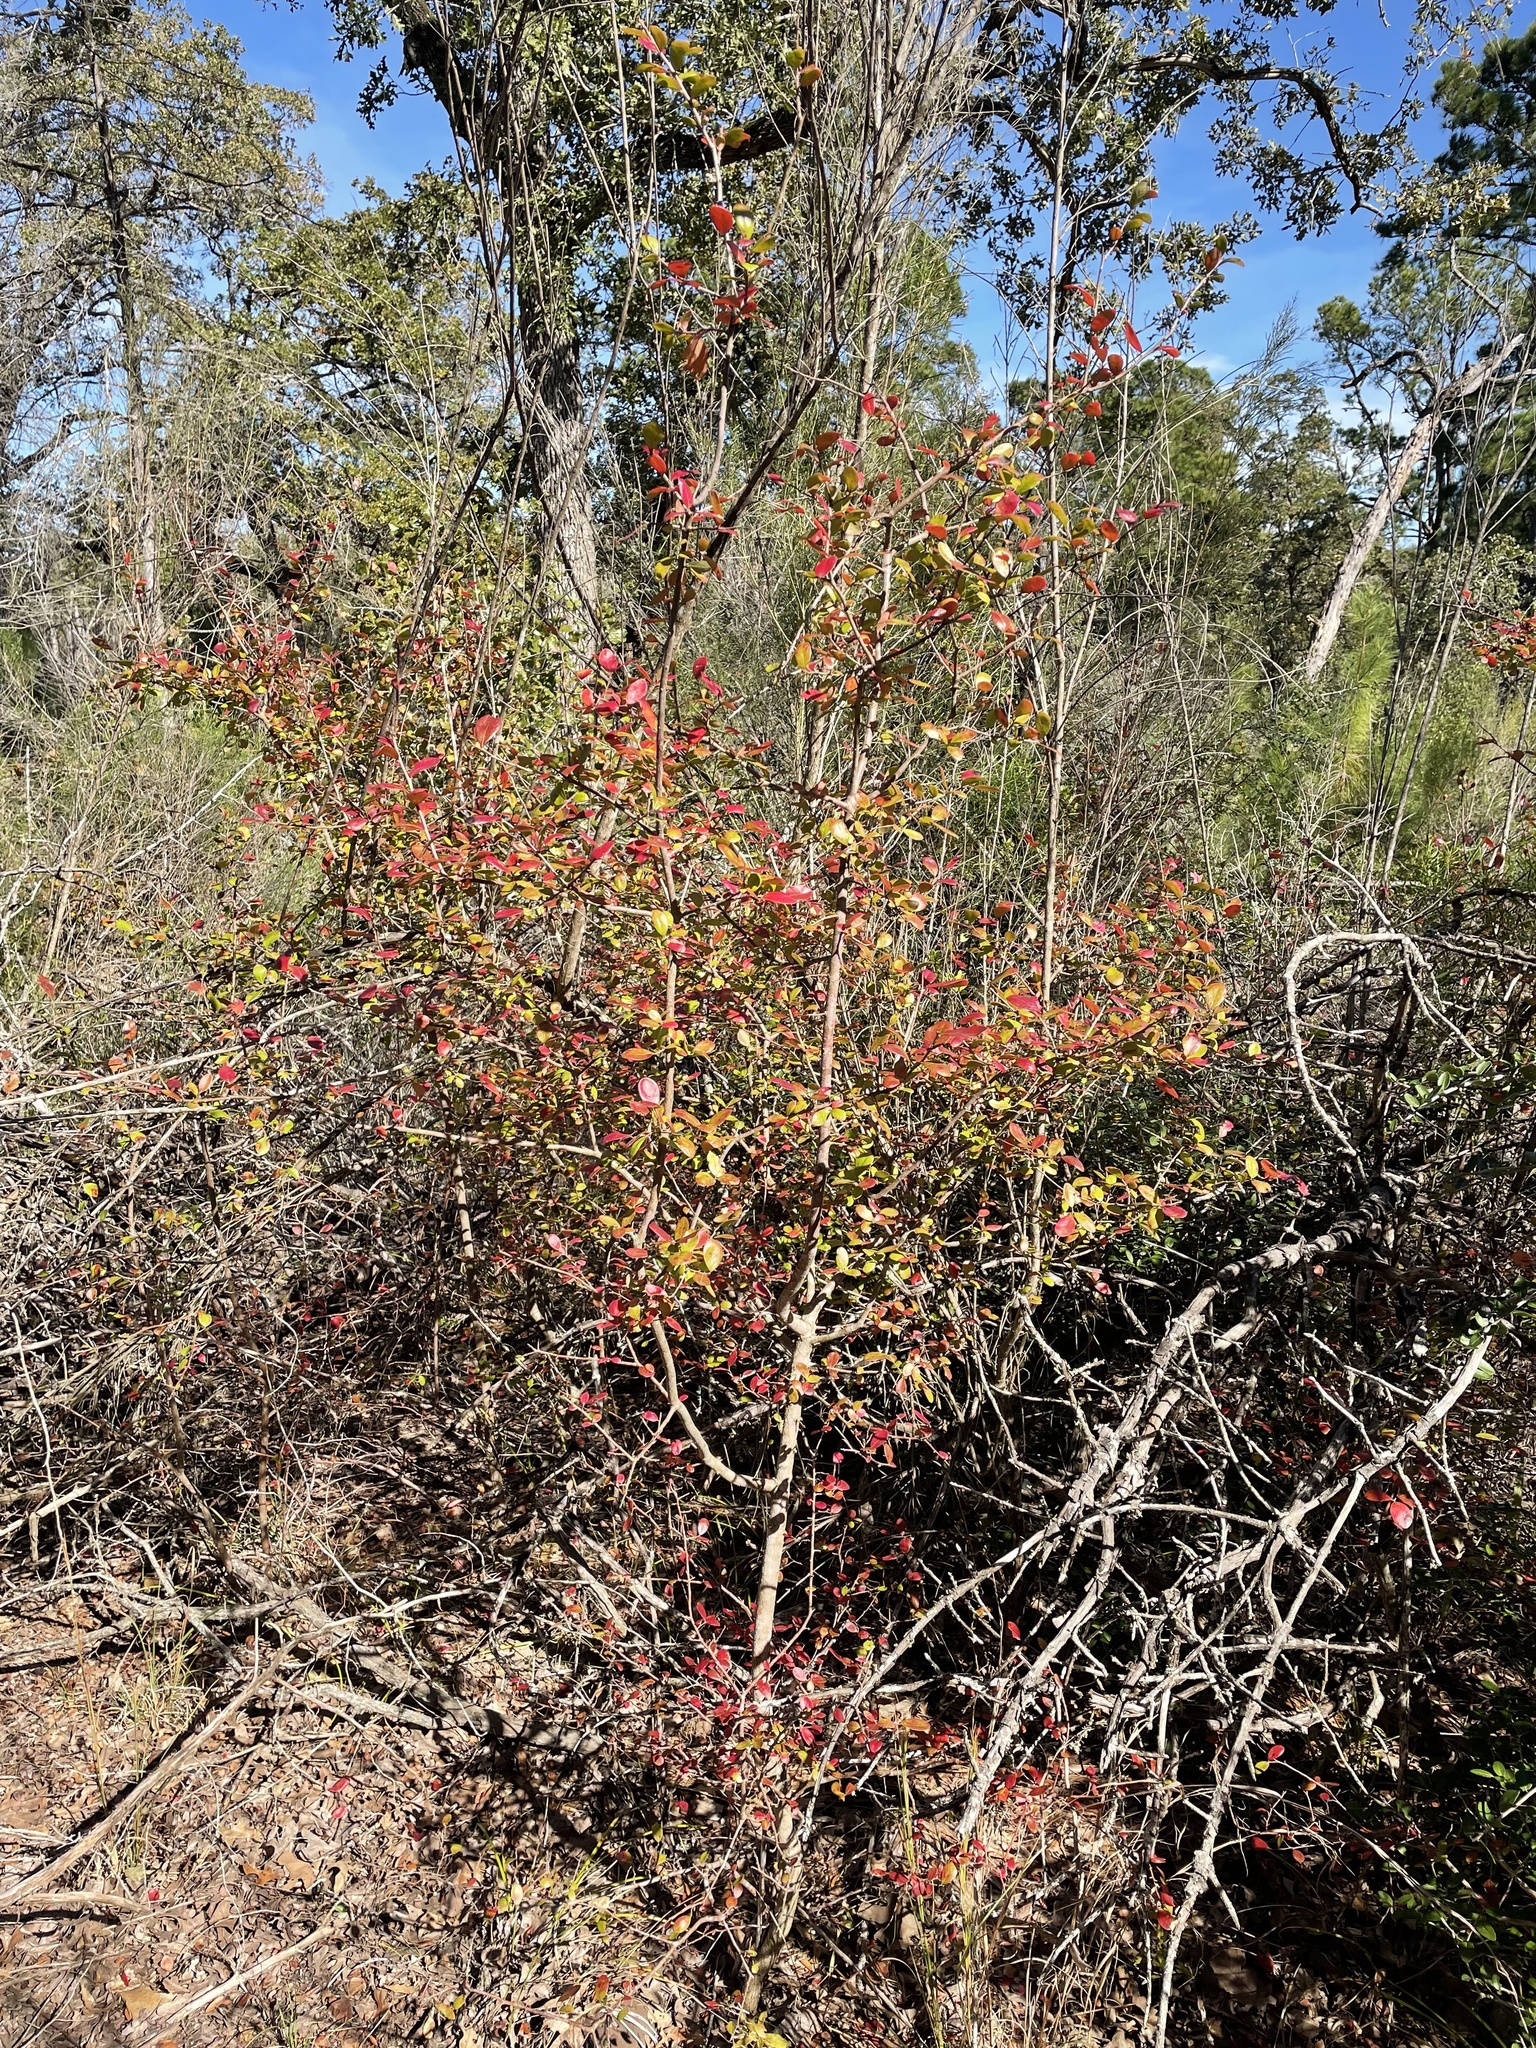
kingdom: Plantae
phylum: Tracheophyta
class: Magnoliopsida
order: Ericales
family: Ericaceae
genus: Vaccinium
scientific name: Vaccinium arboreum
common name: Farkleberry
